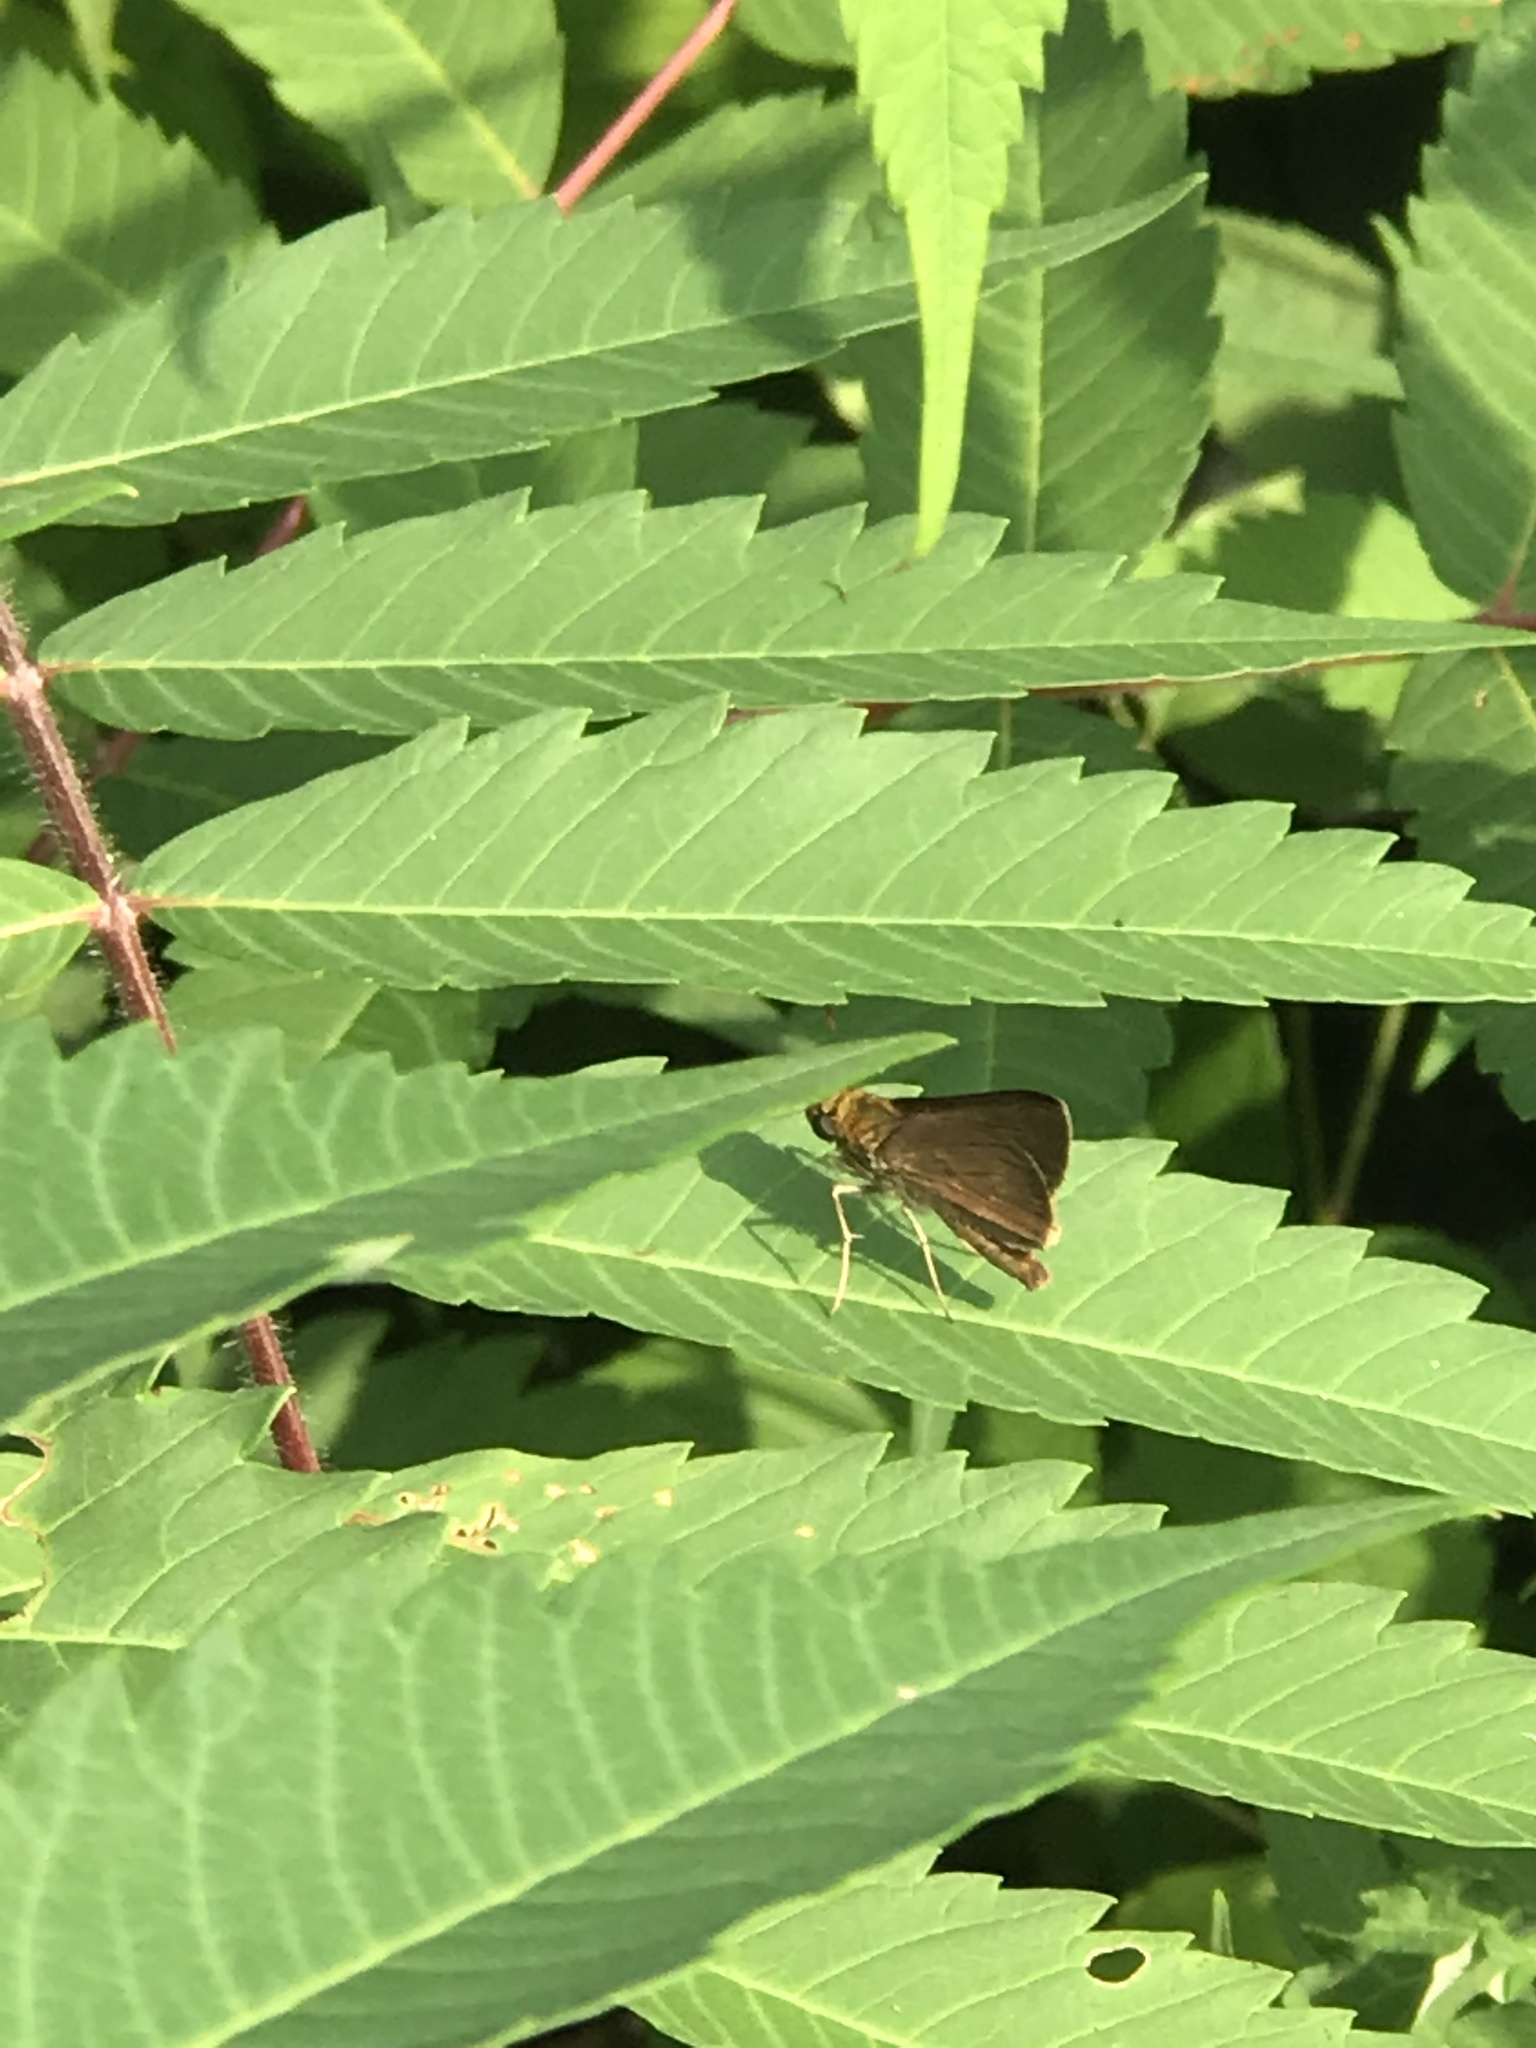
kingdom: Animalia
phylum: Arthropoda
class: Insecta
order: Lepidoptera
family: Hesperiidae
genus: Euphyes
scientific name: Euphyes vestris
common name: Dun skipper
